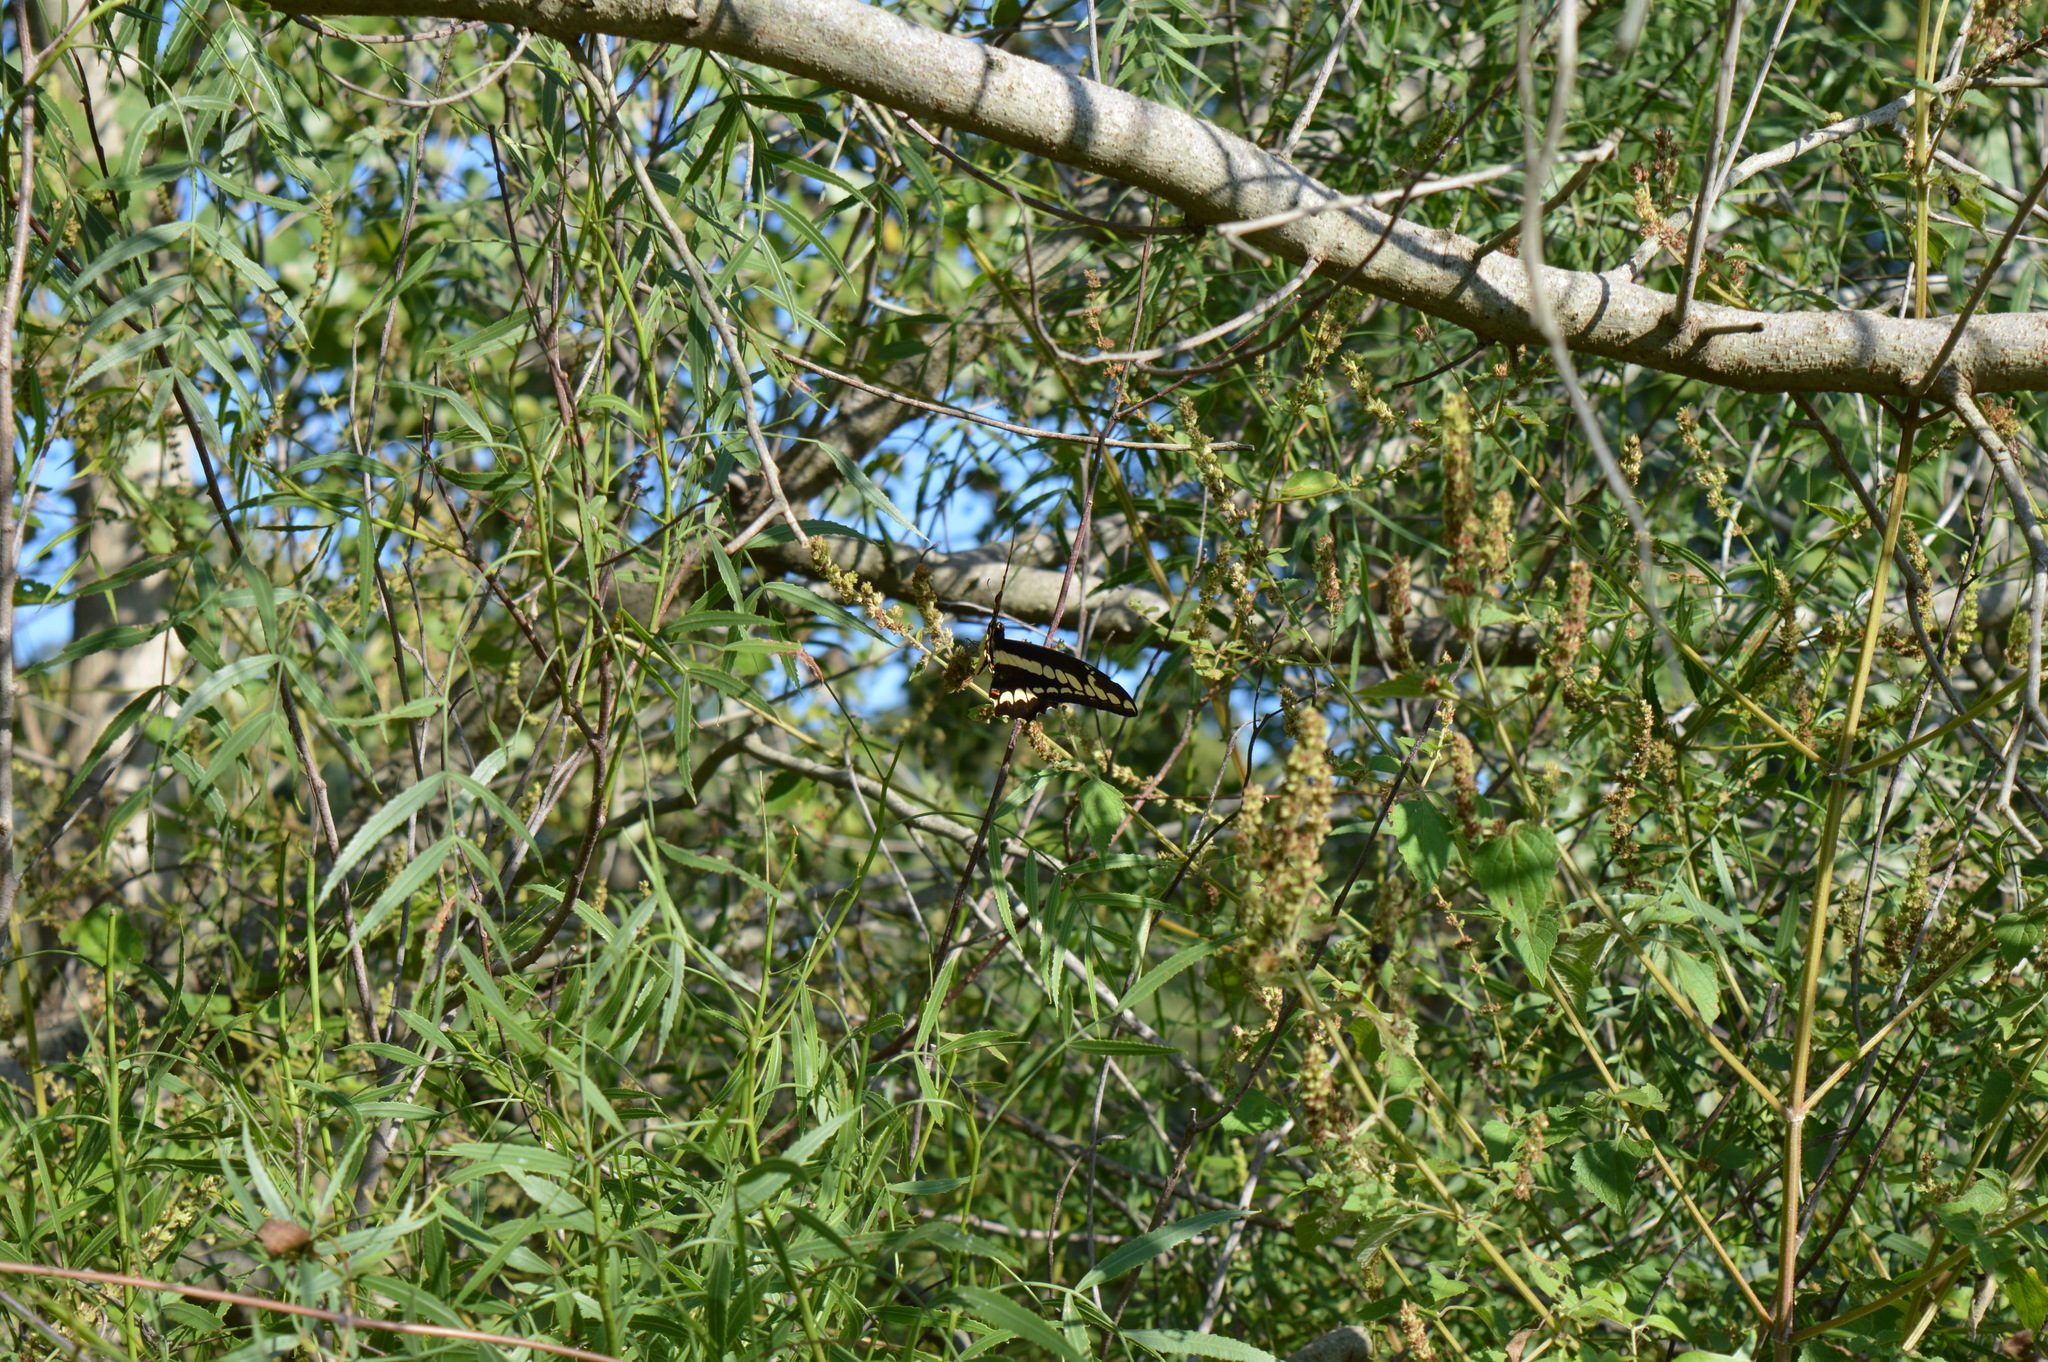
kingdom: Animalia
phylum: Arthropoda
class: Insecta
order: Lepidoptera
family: Papilionidae
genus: Papilio
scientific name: Papilio thoas
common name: King swallowtail
